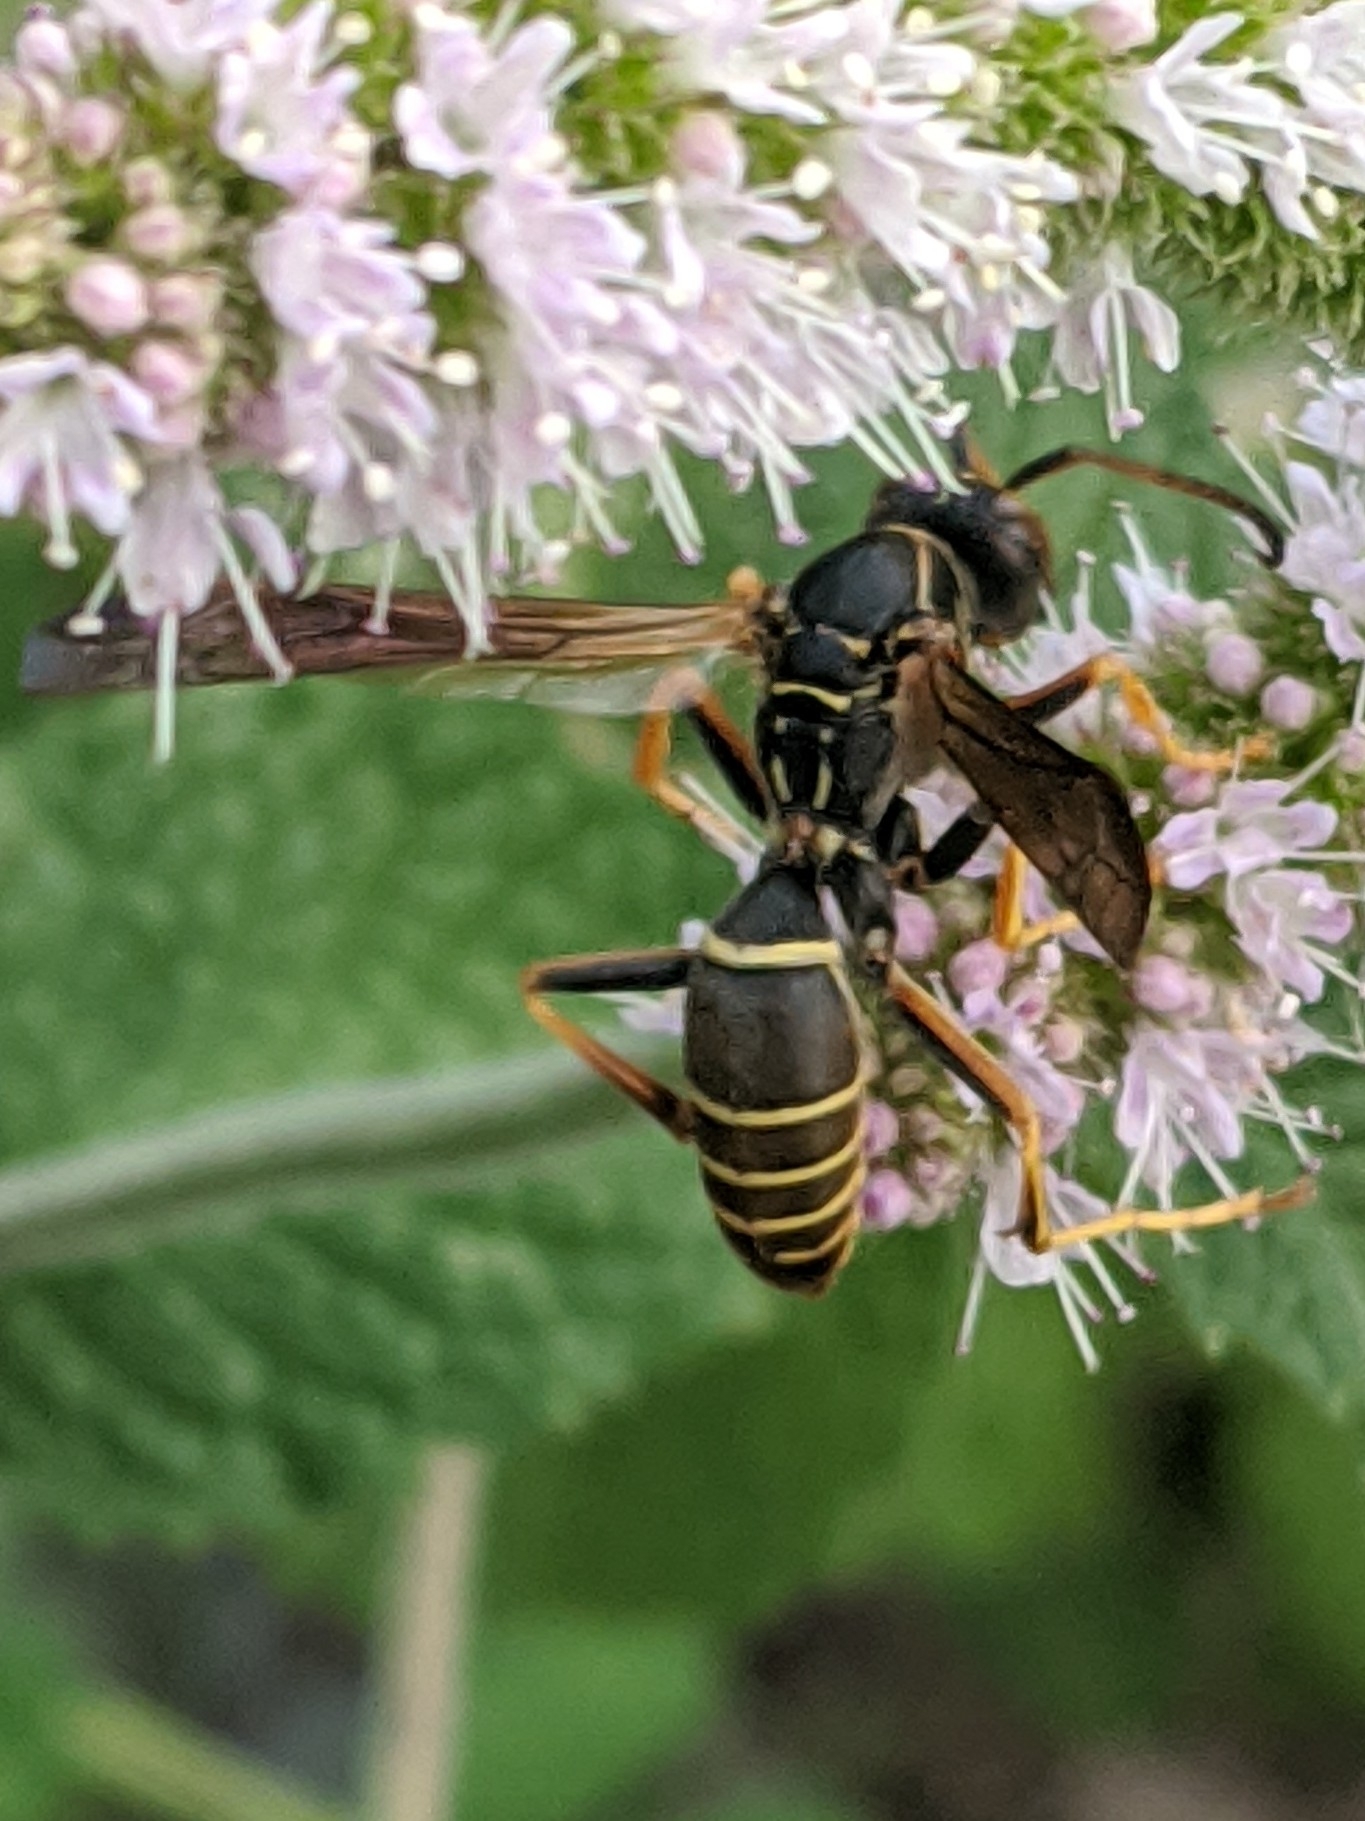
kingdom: Animalia
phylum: Arthropoda
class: Insecta
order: Hymenoptera
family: Eumenidae
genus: Polistes
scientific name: Polistes fuscatus
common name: Dark paper wasp
